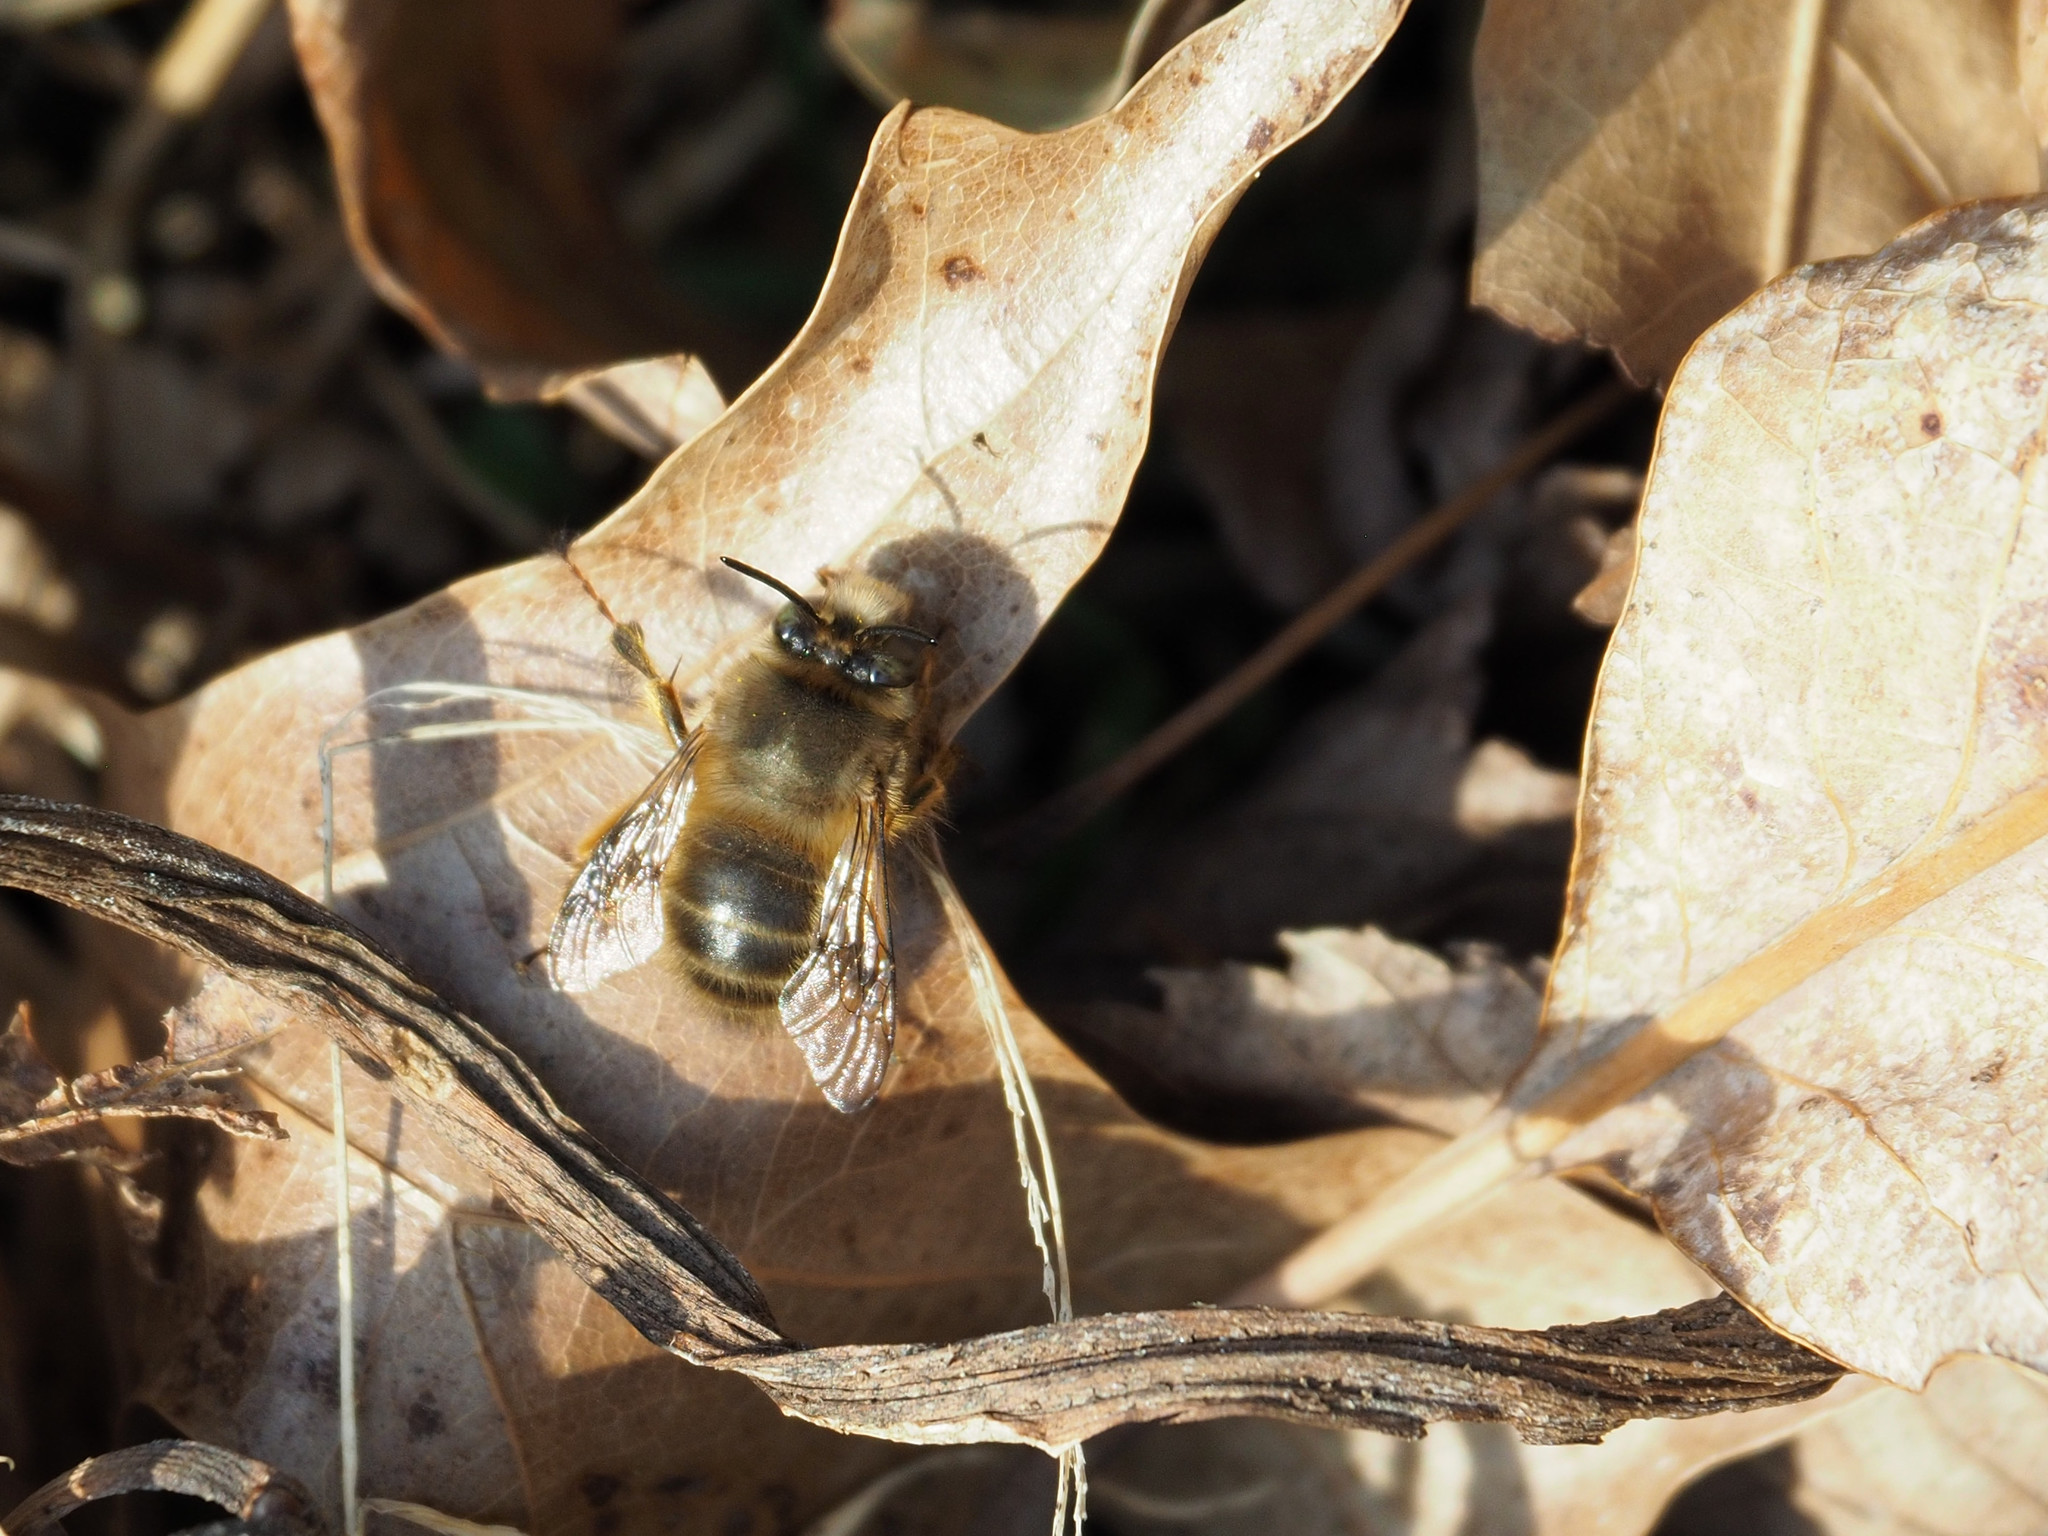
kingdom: Animalia
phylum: Arthropoda
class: Insecta
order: Hymenoptera
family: Apidae
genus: Anthophora
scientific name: Anthophora villosula
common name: Asian shaggy digger
